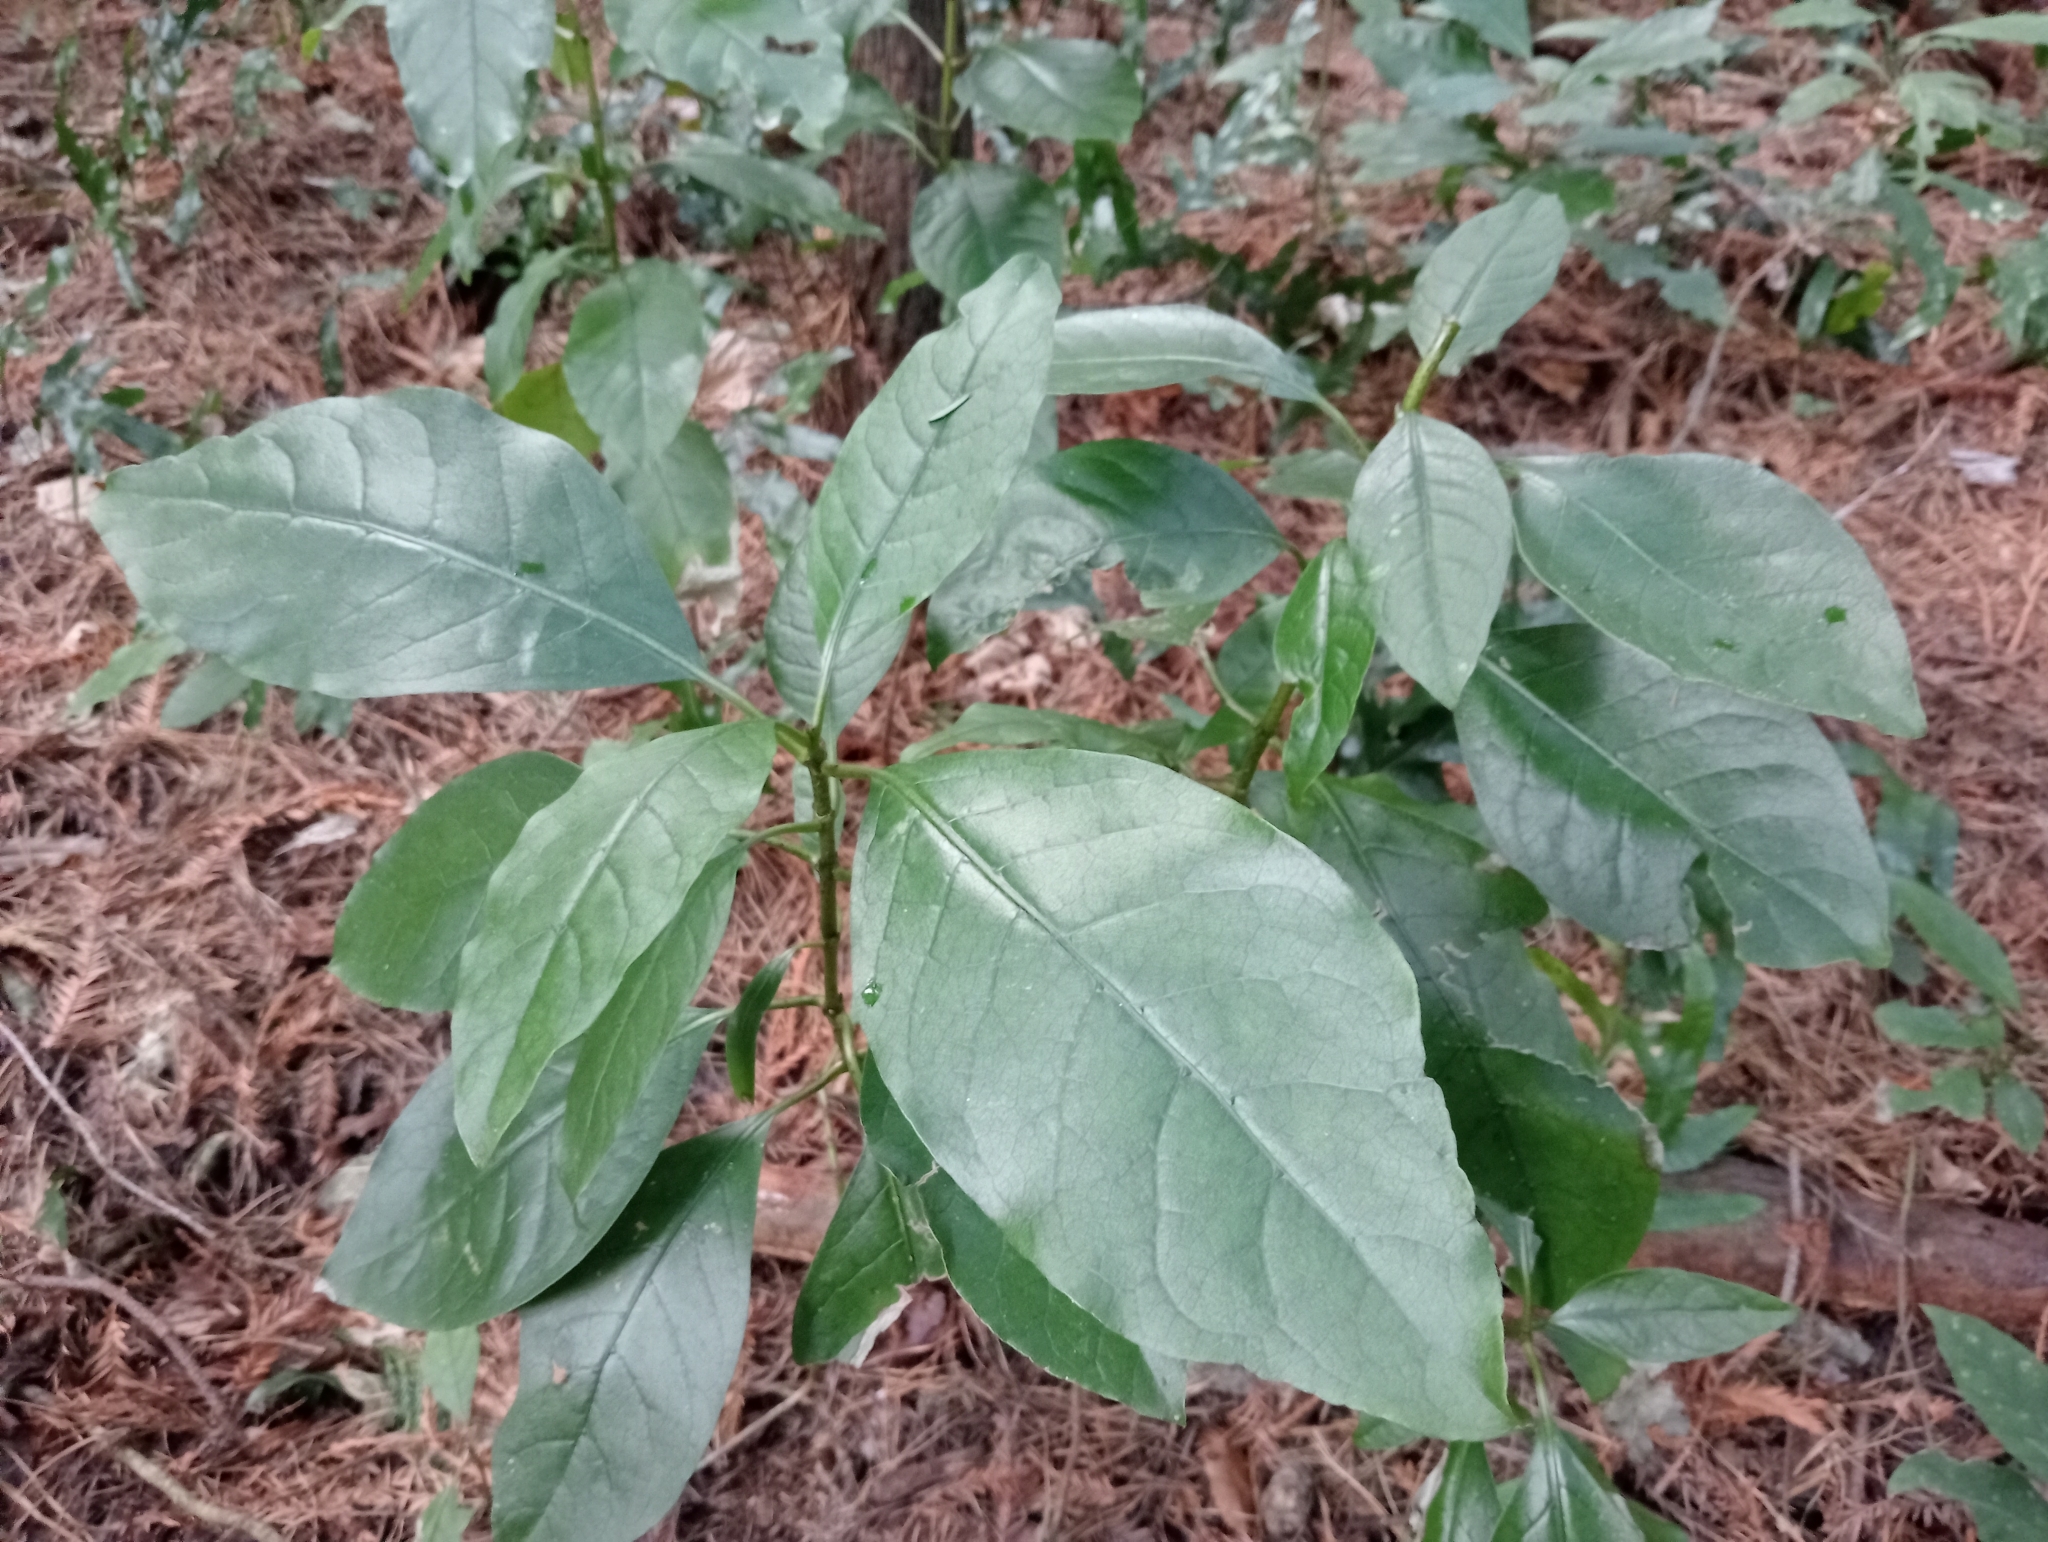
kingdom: Plantae
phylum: Tracheophyta
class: Magnoliopsida
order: Gentianales
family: Rubiaceae
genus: Coprosma
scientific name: Coprosma autumnalis
